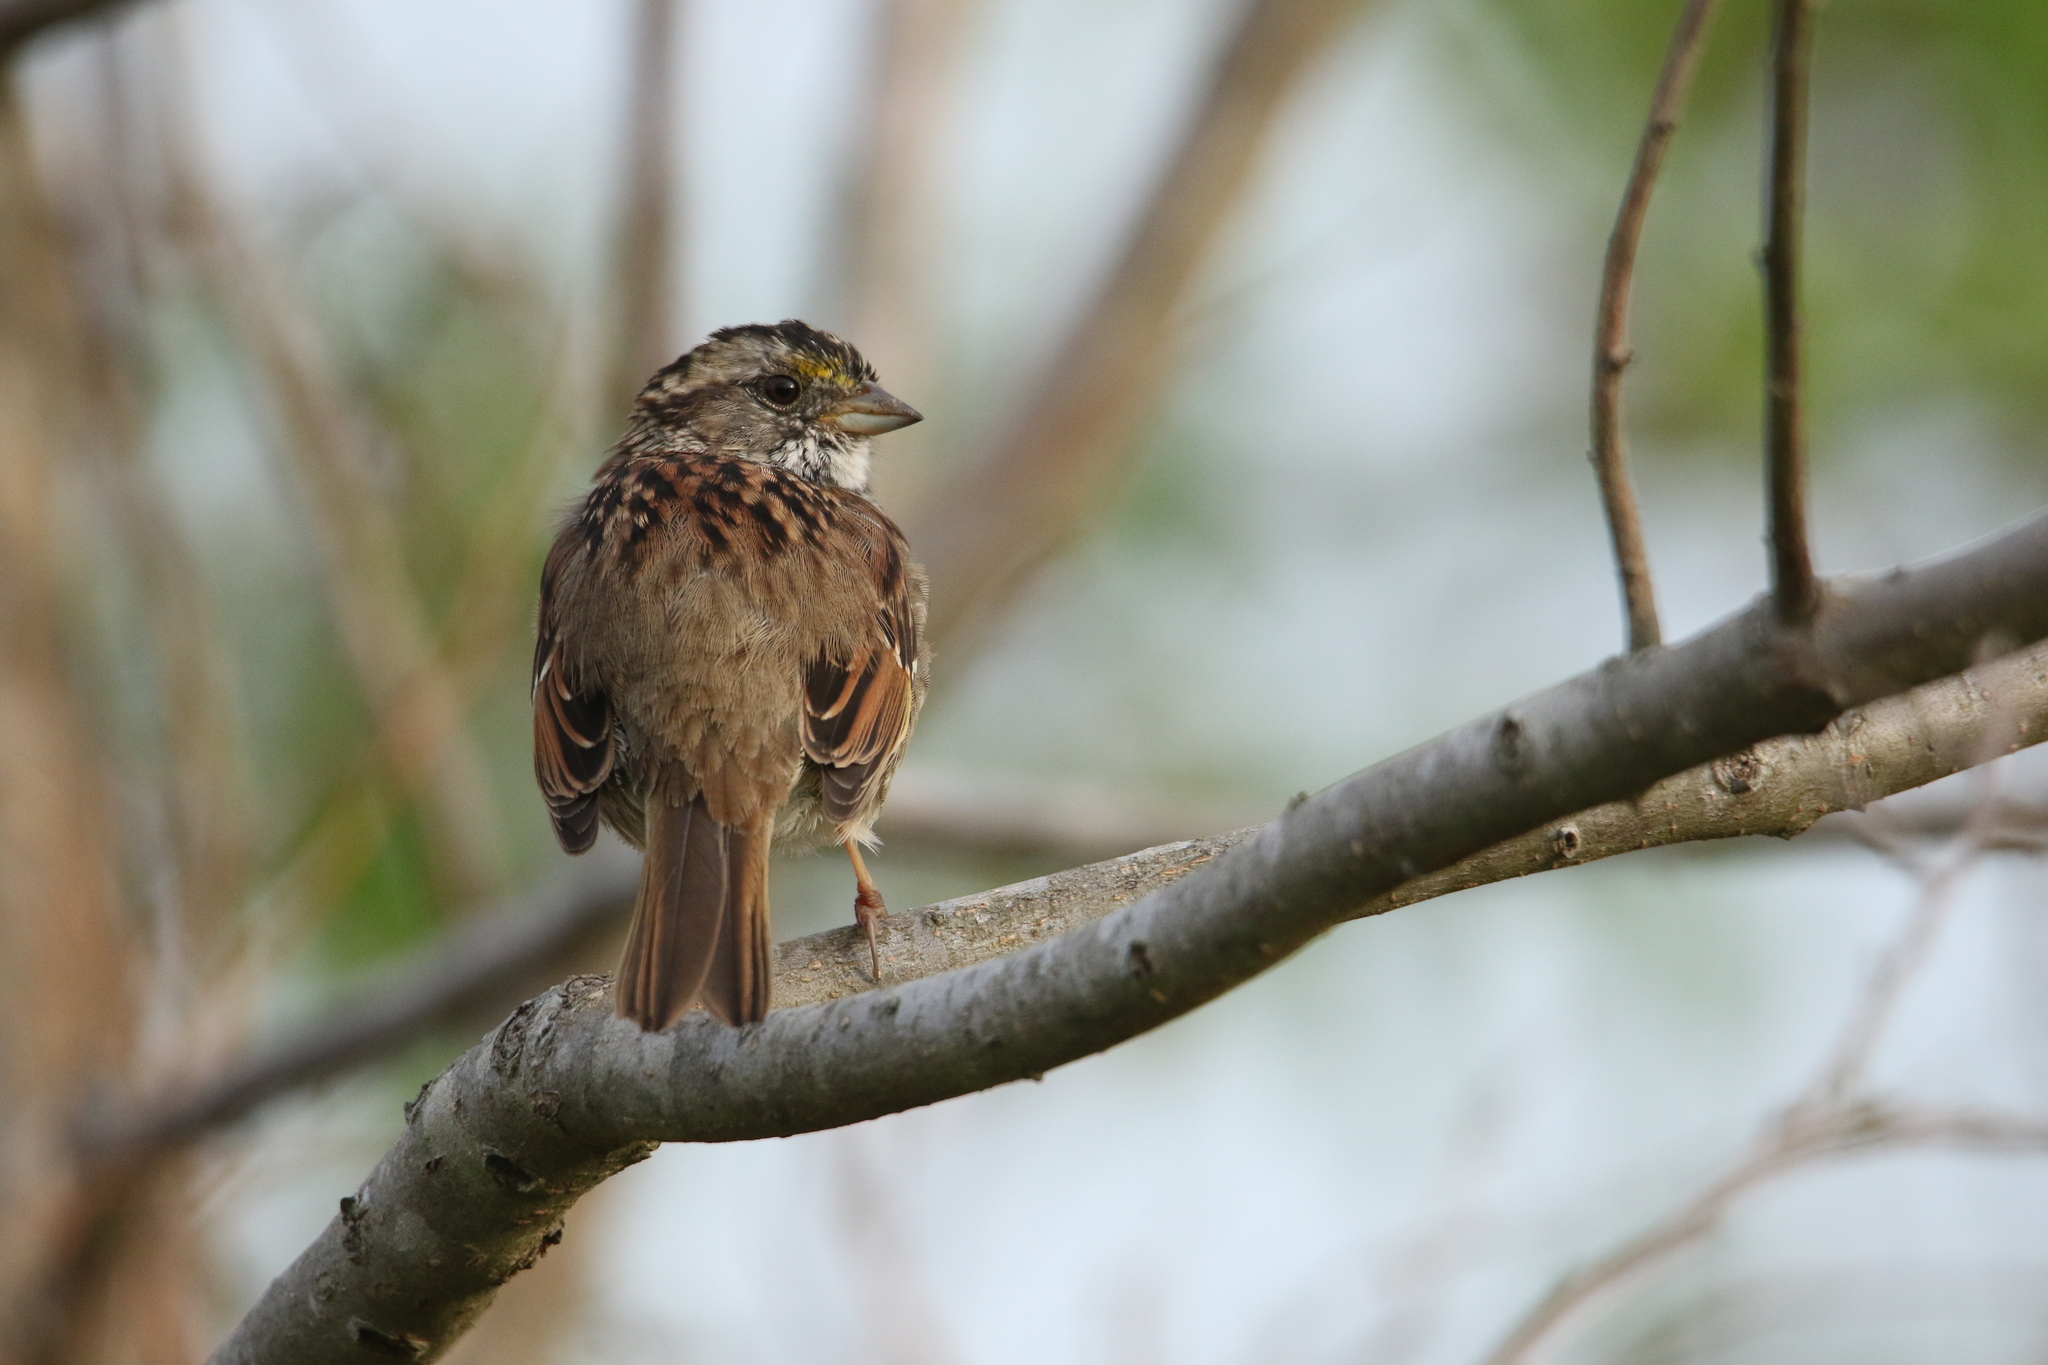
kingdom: Animalia
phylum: Chordata
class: Aves
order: Passeriformes
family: Passerellidae
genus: Zonotrichia
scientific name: Zonotrichia albicollis
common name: White-throated sparrow
